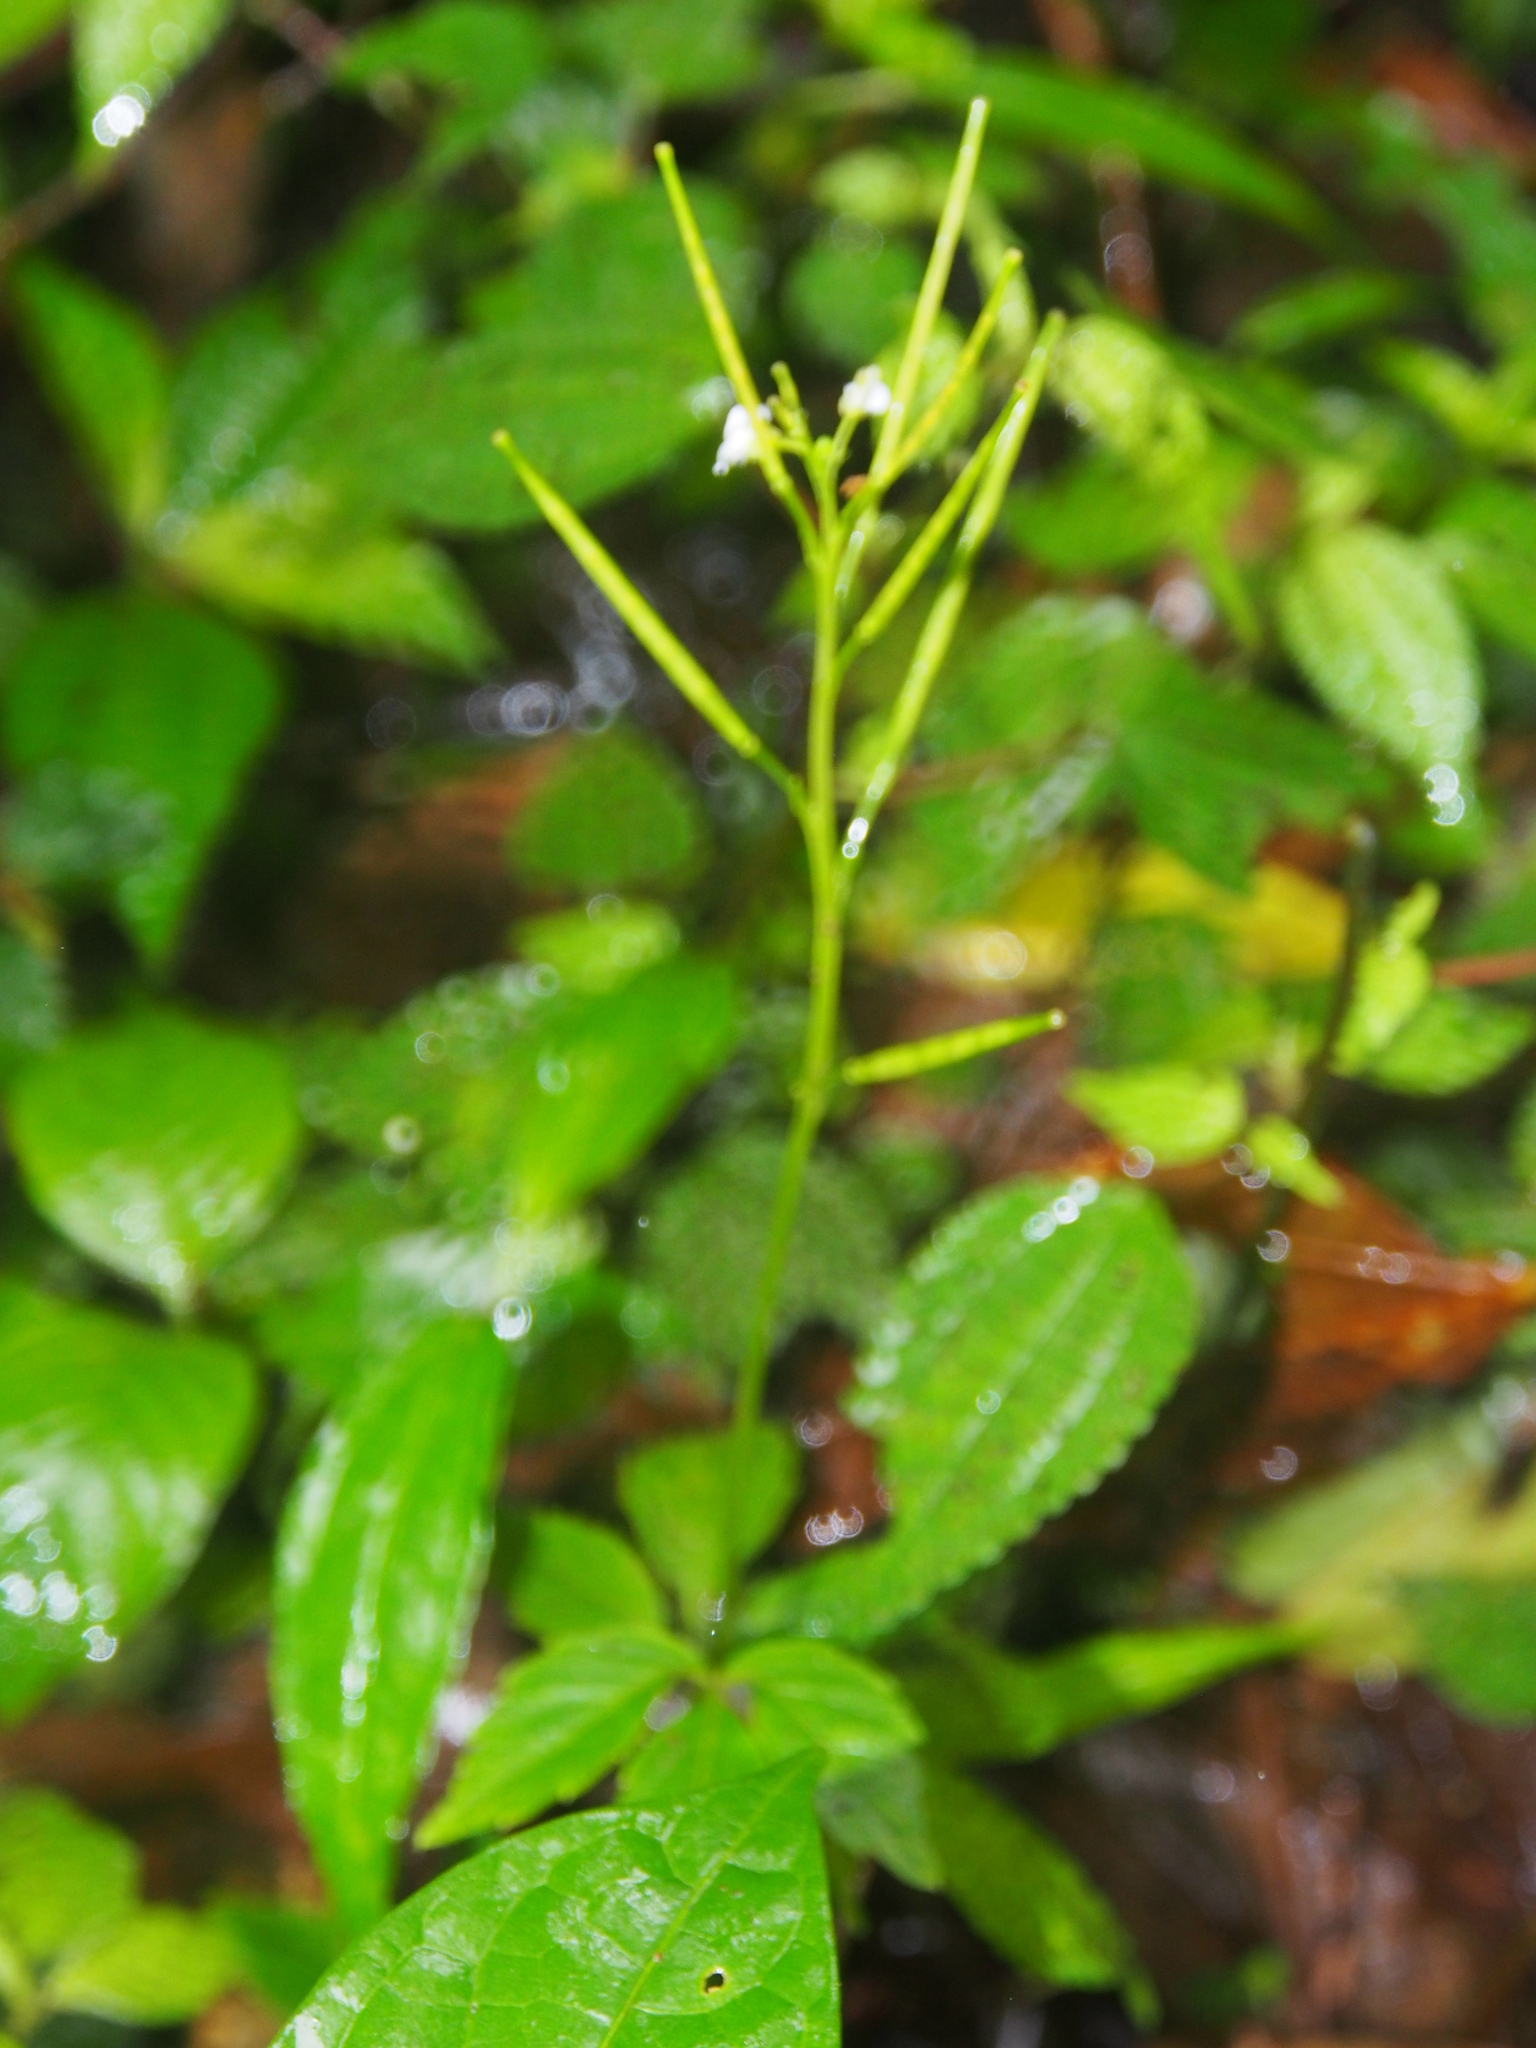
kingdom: Plantae
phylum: Tracheophyta
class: Magnoliopsida
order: Brassicales
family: Brassicaceae
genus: Cardamine
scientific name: Cardamine fulcrata
